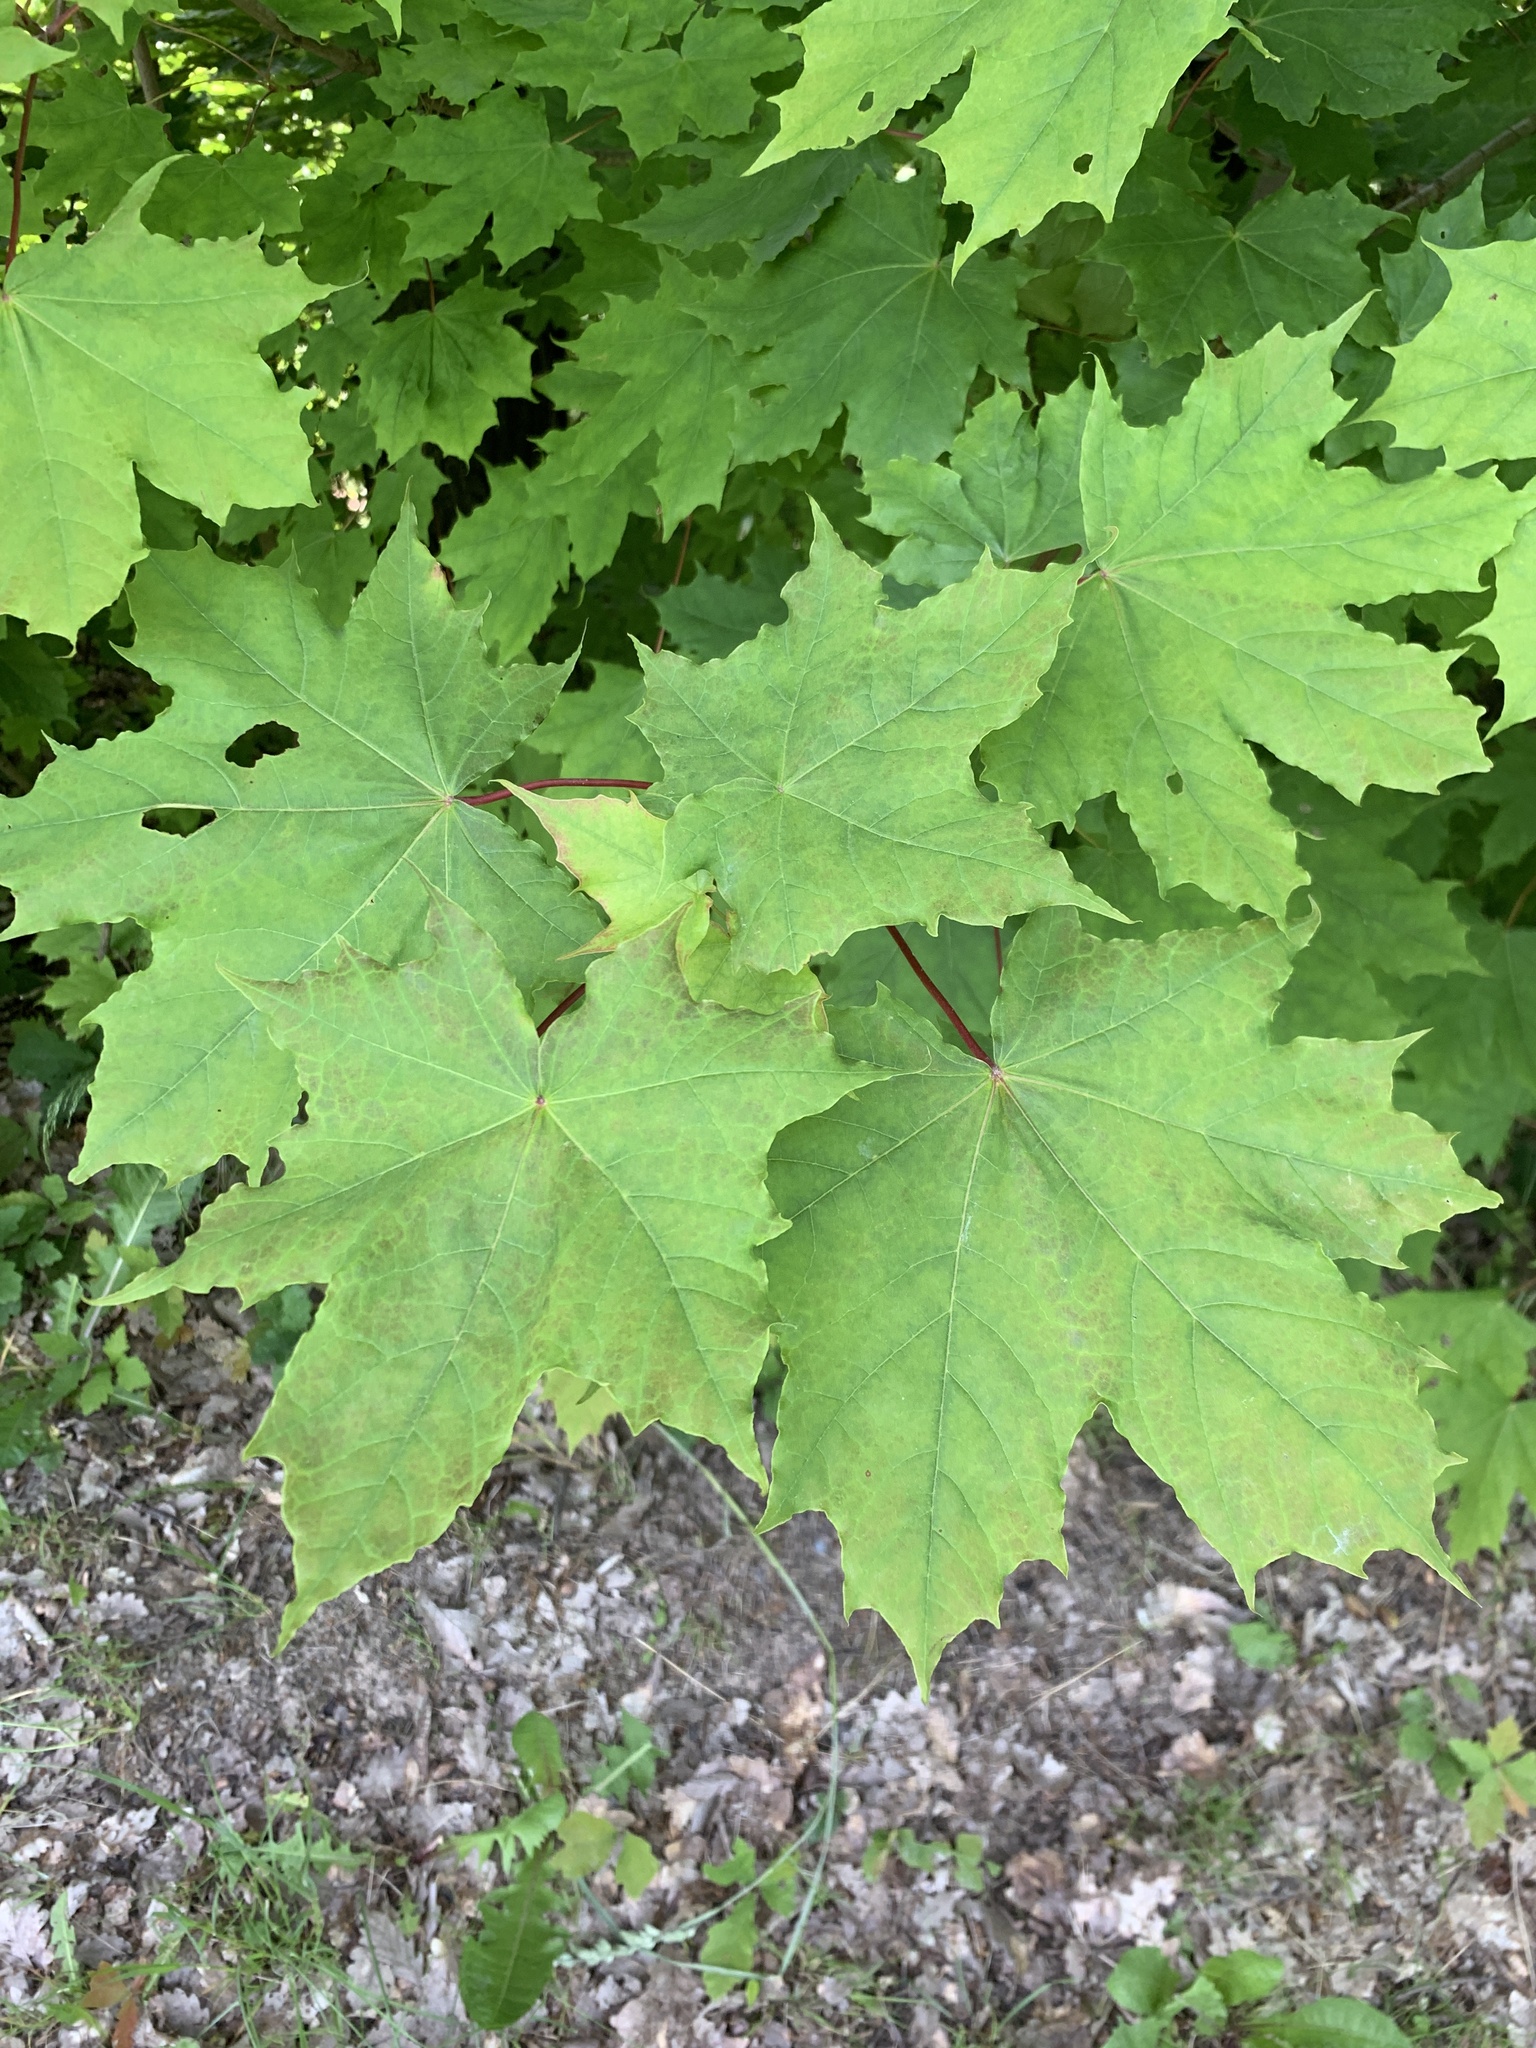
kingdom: Plantae
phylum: Tracheophyta
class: Magnoliopsida
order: Sapindales
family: Sapindaceae
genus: Acer
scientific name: Acer platanoides
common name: Norway maple
